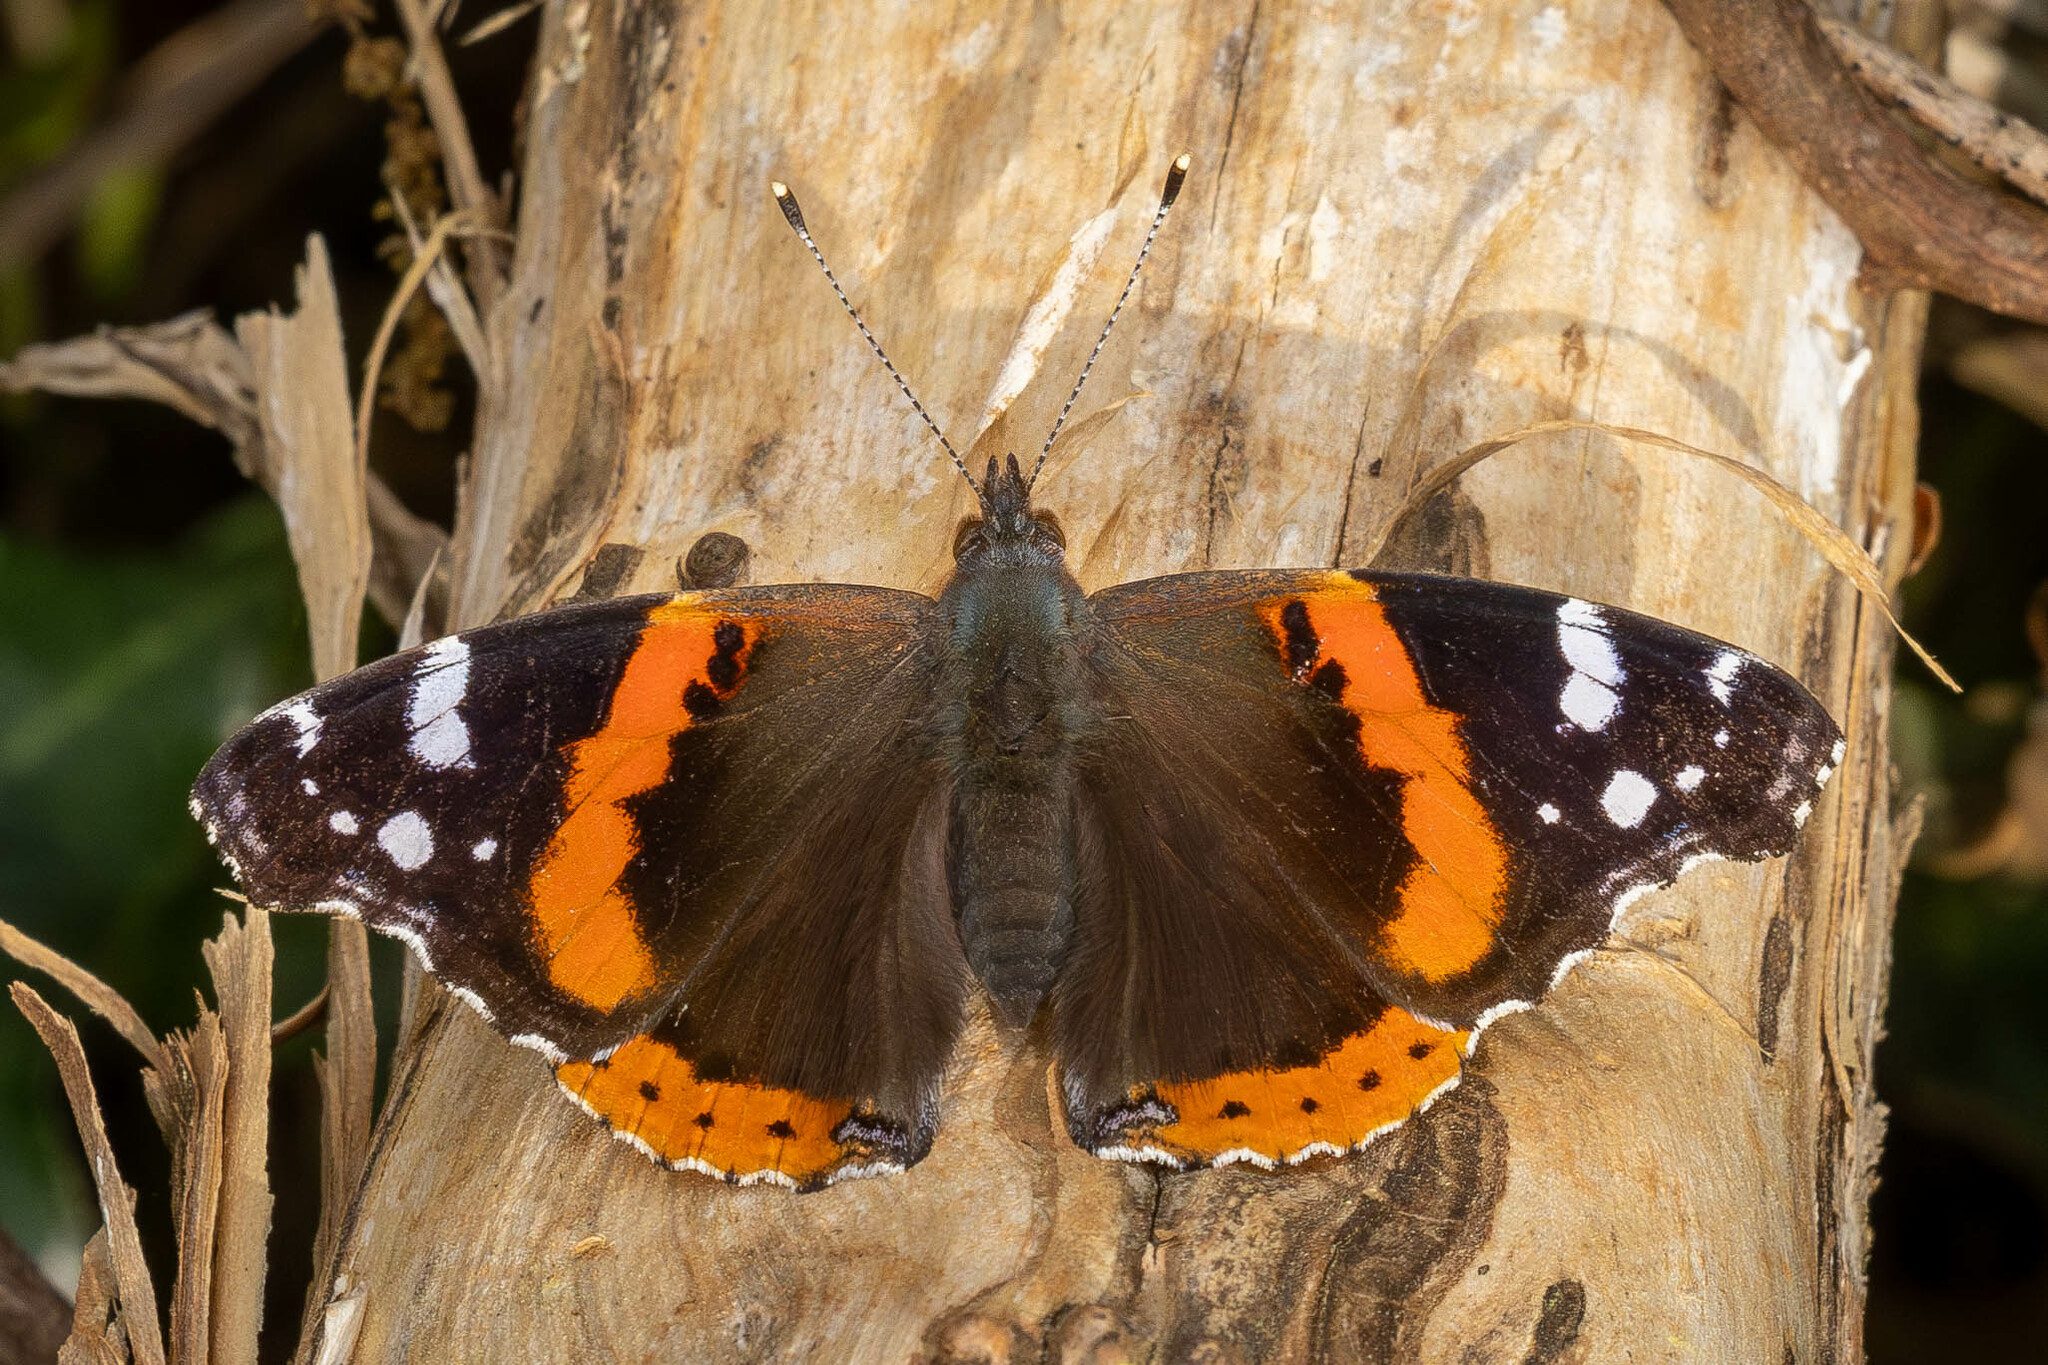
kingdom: Animalia
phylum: Arthropoda
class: Insecta
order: Lepidoptera
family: Nymphalidae
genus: Vanessa
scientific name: Vanessa atalanta
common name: Red admiral
